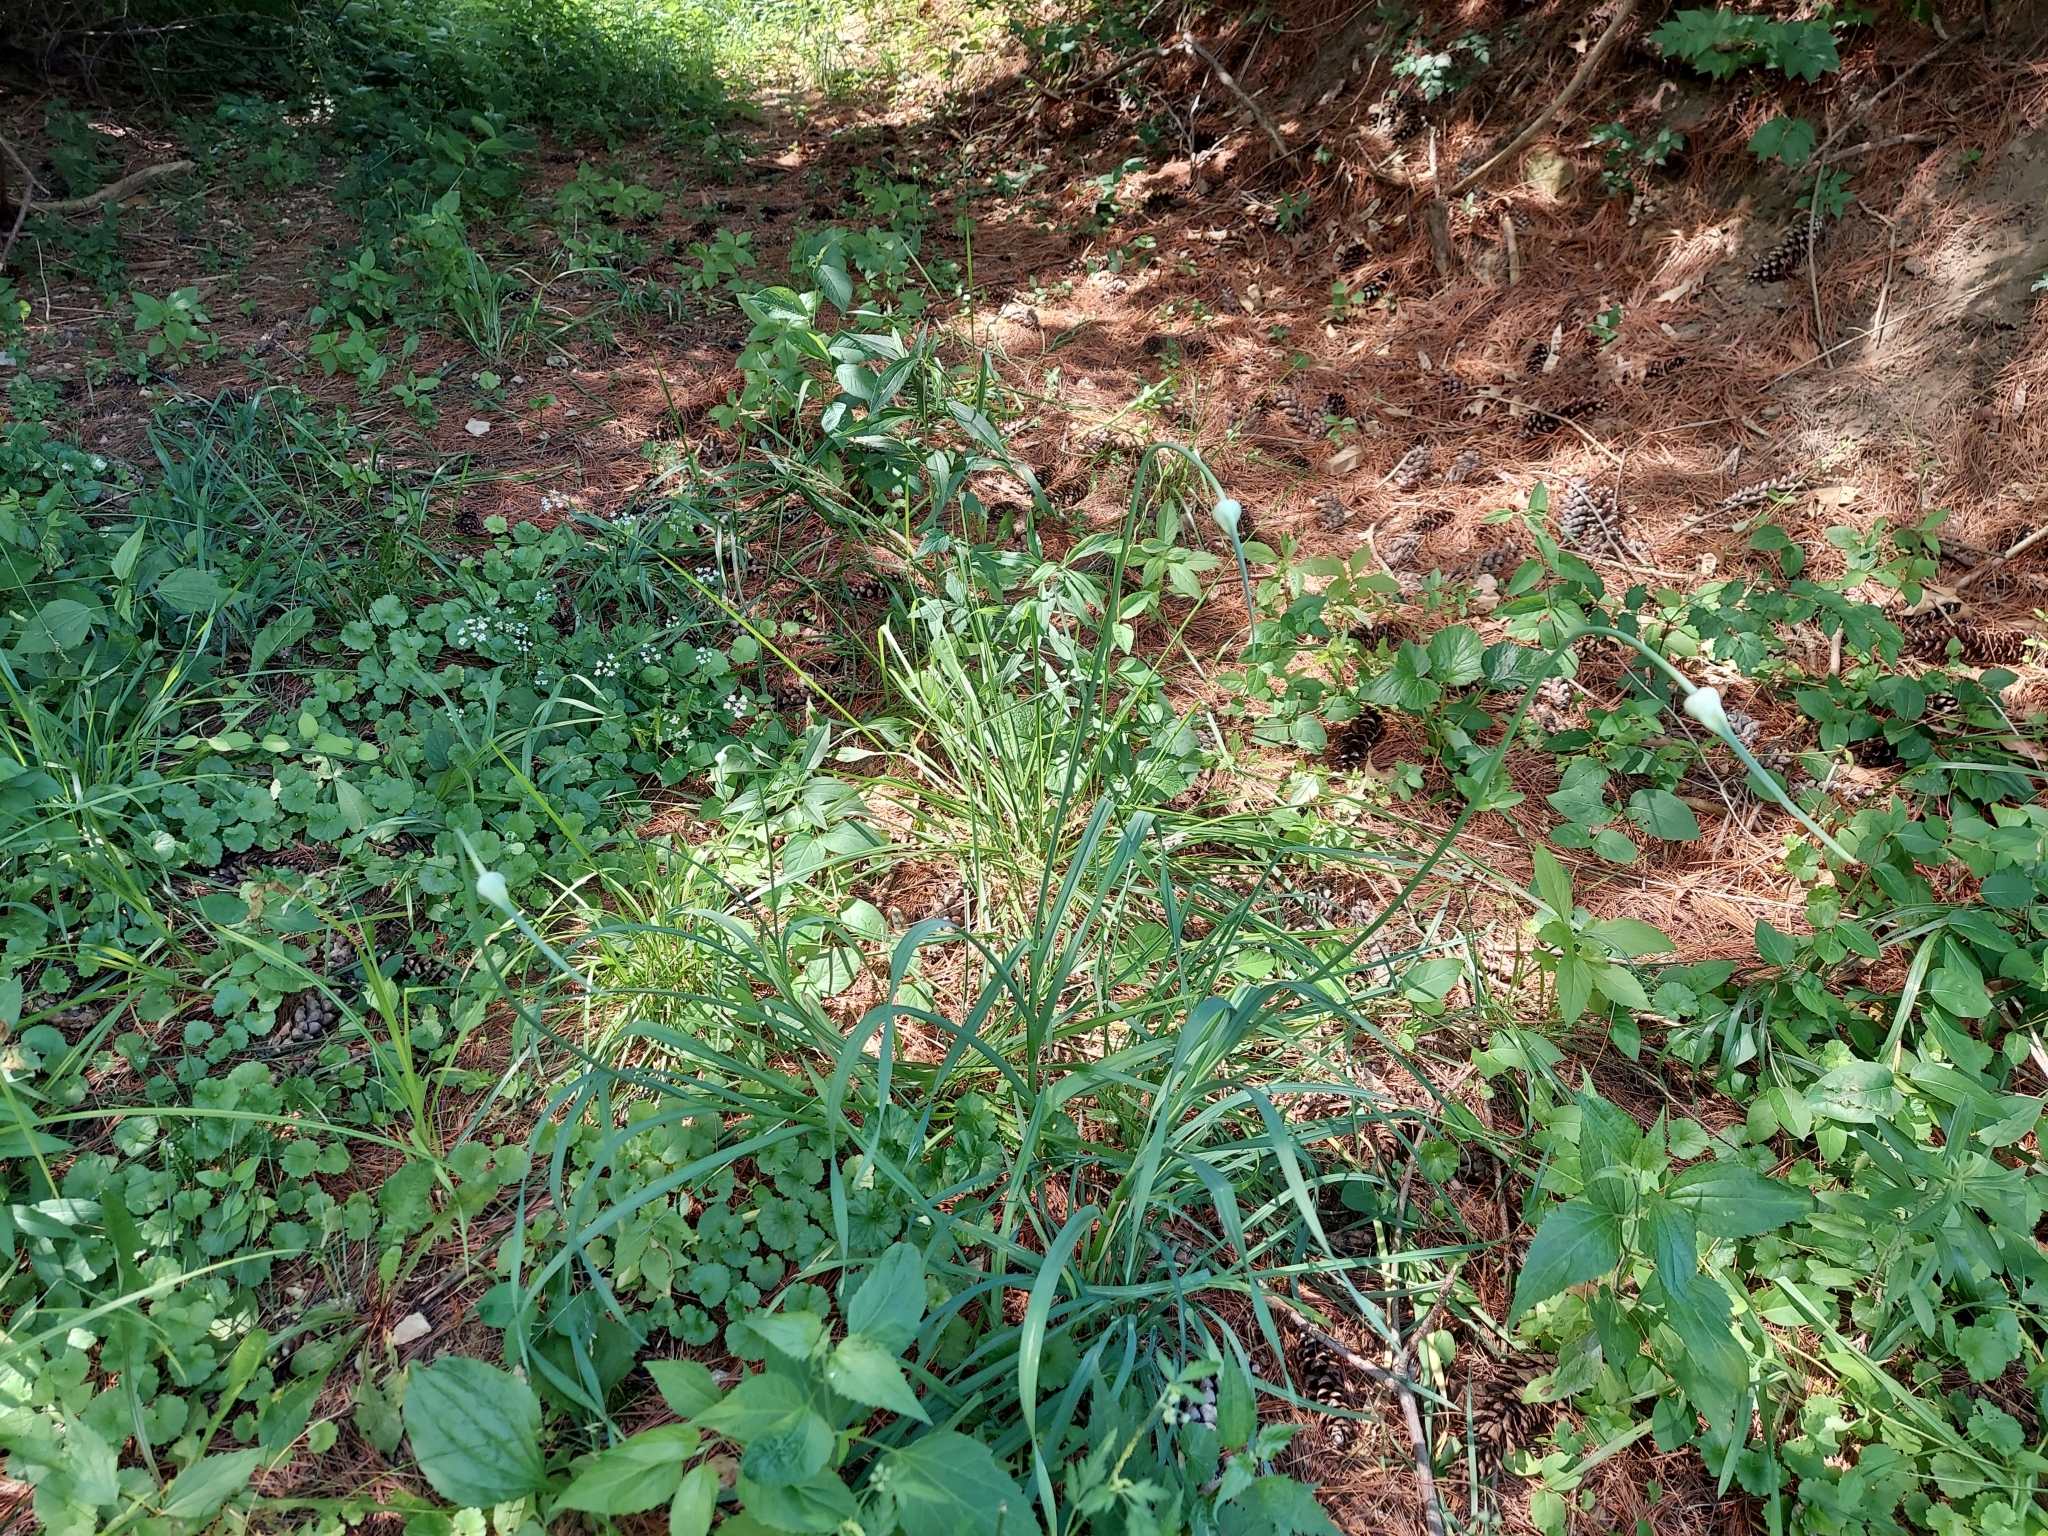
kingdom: Plantae
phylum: Tracheophyta
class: Liliopsida
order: Asparagales
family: Amaryllidaceae
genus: Allium
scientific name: Allium sativum
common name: Garlic
